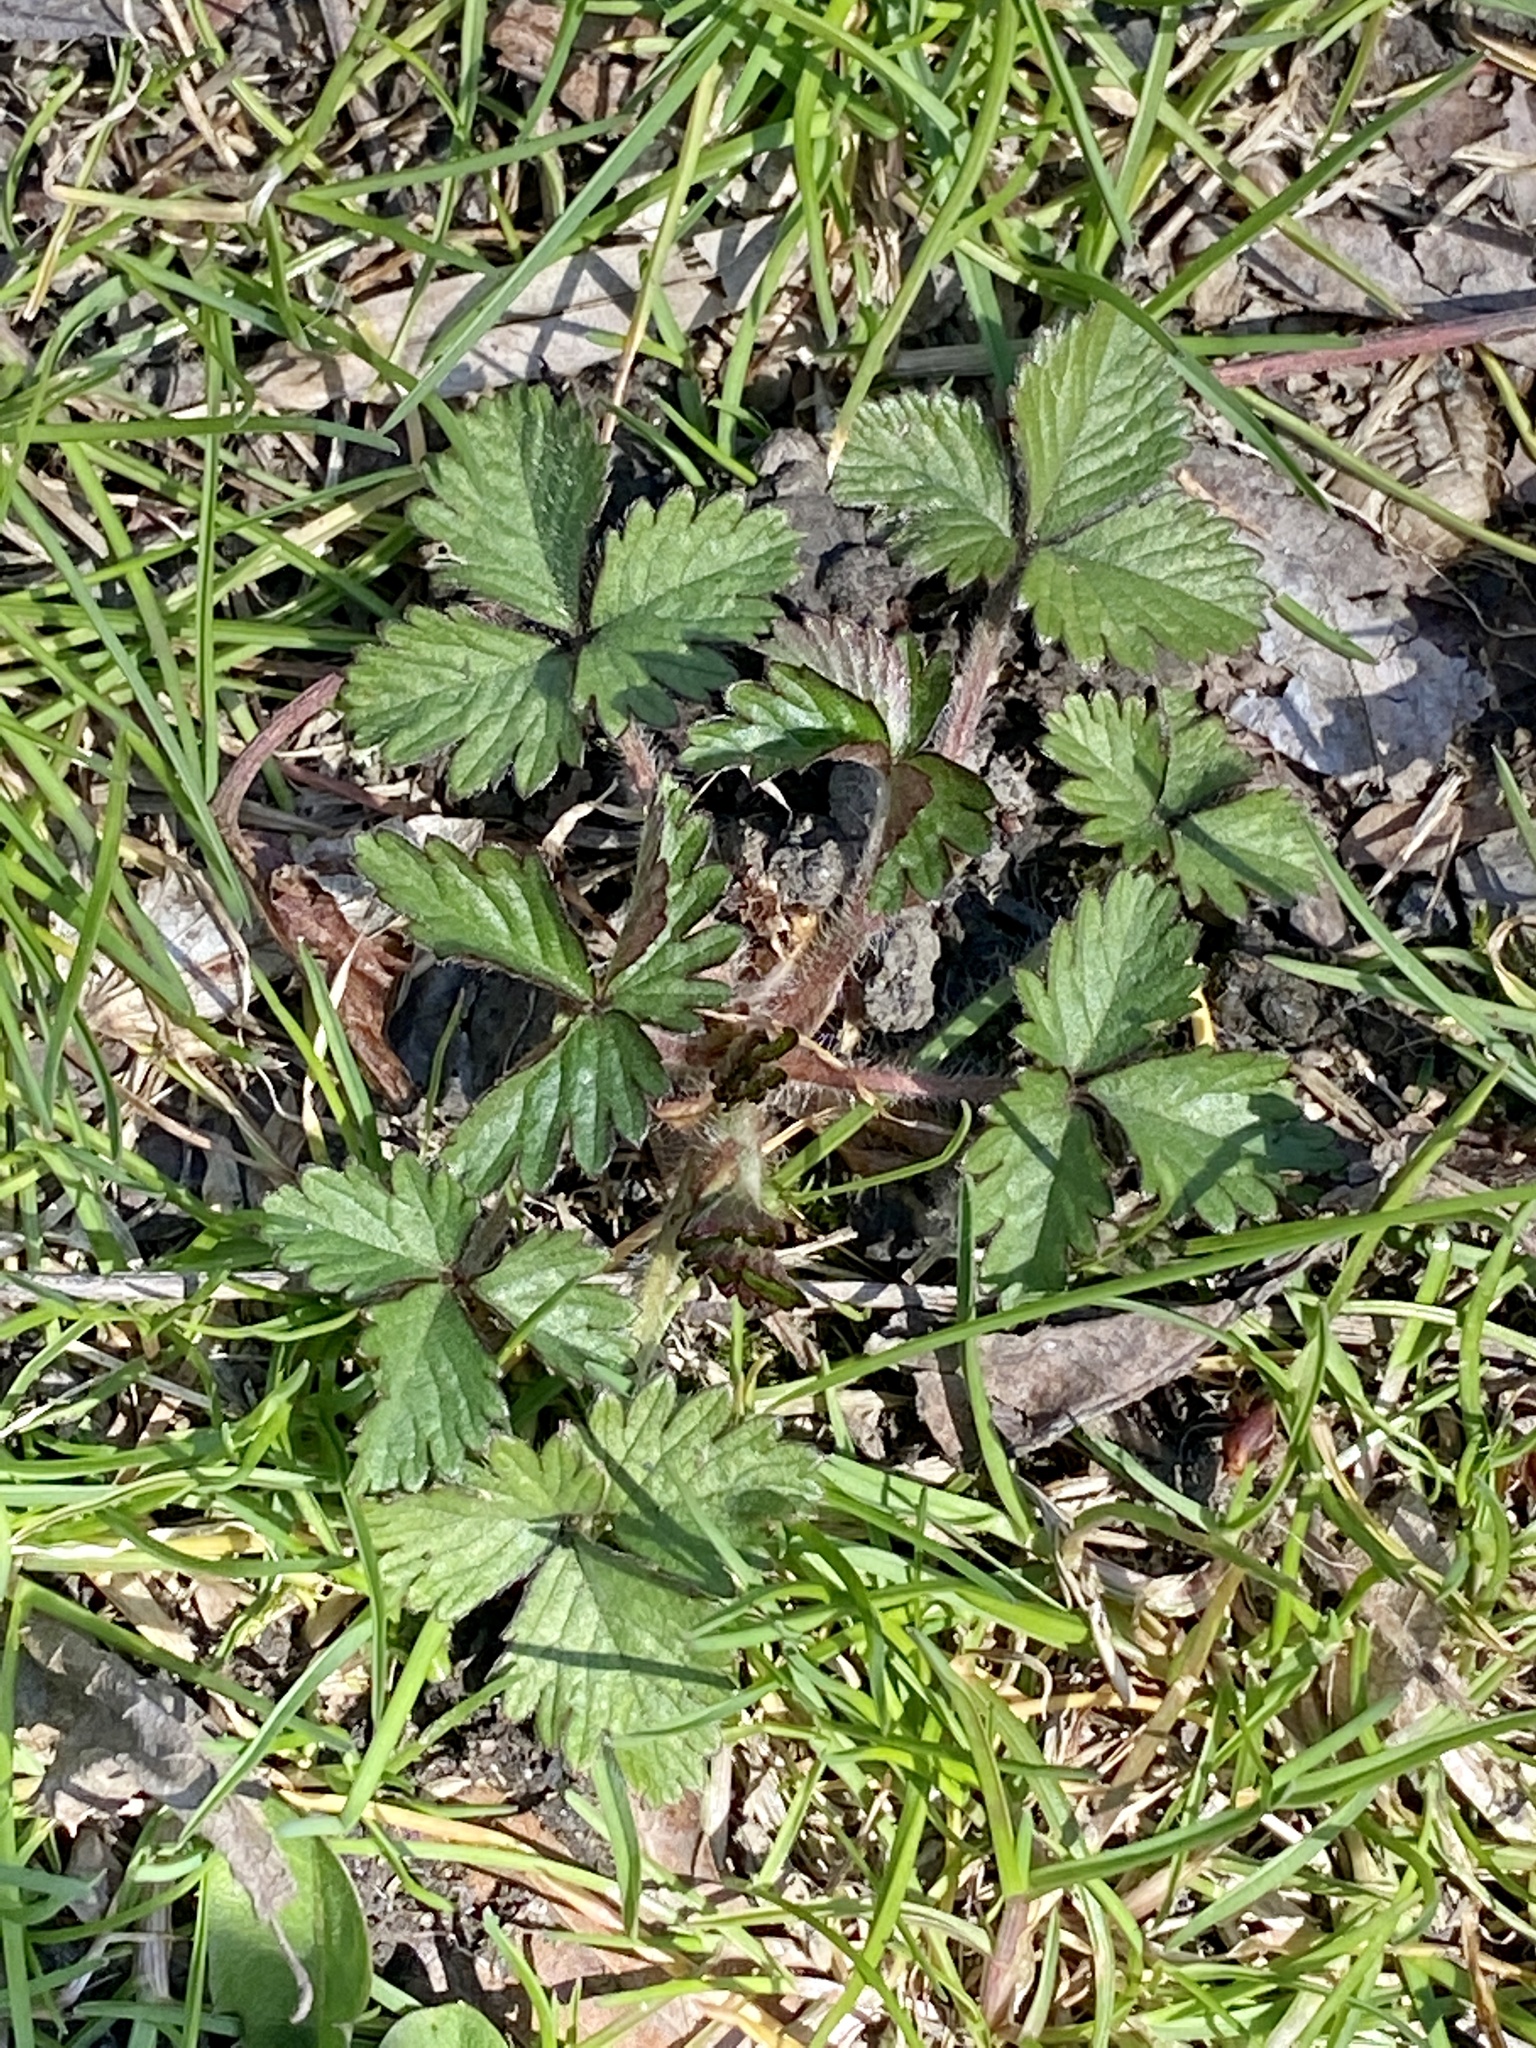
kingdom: Plantae
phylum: Tracheophyta
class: Magnoliopsida
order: Rosales
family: Rosaceae
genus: Potentilla
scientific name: Potentilla indica
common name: Yellow-flowered strawberry
